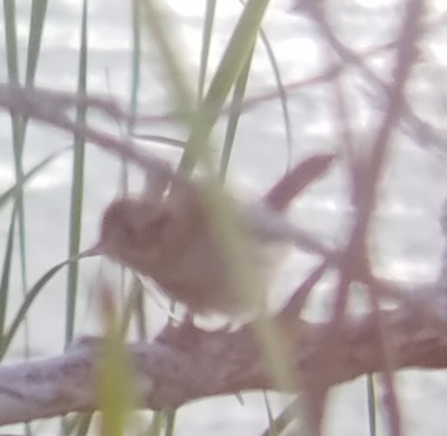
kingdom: Animalia
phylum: Chordata
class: Aves
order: Passeriformes
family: Passerellidae
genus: Melospiza
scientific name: Melospiza georgiana
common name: Swamp sparrow
